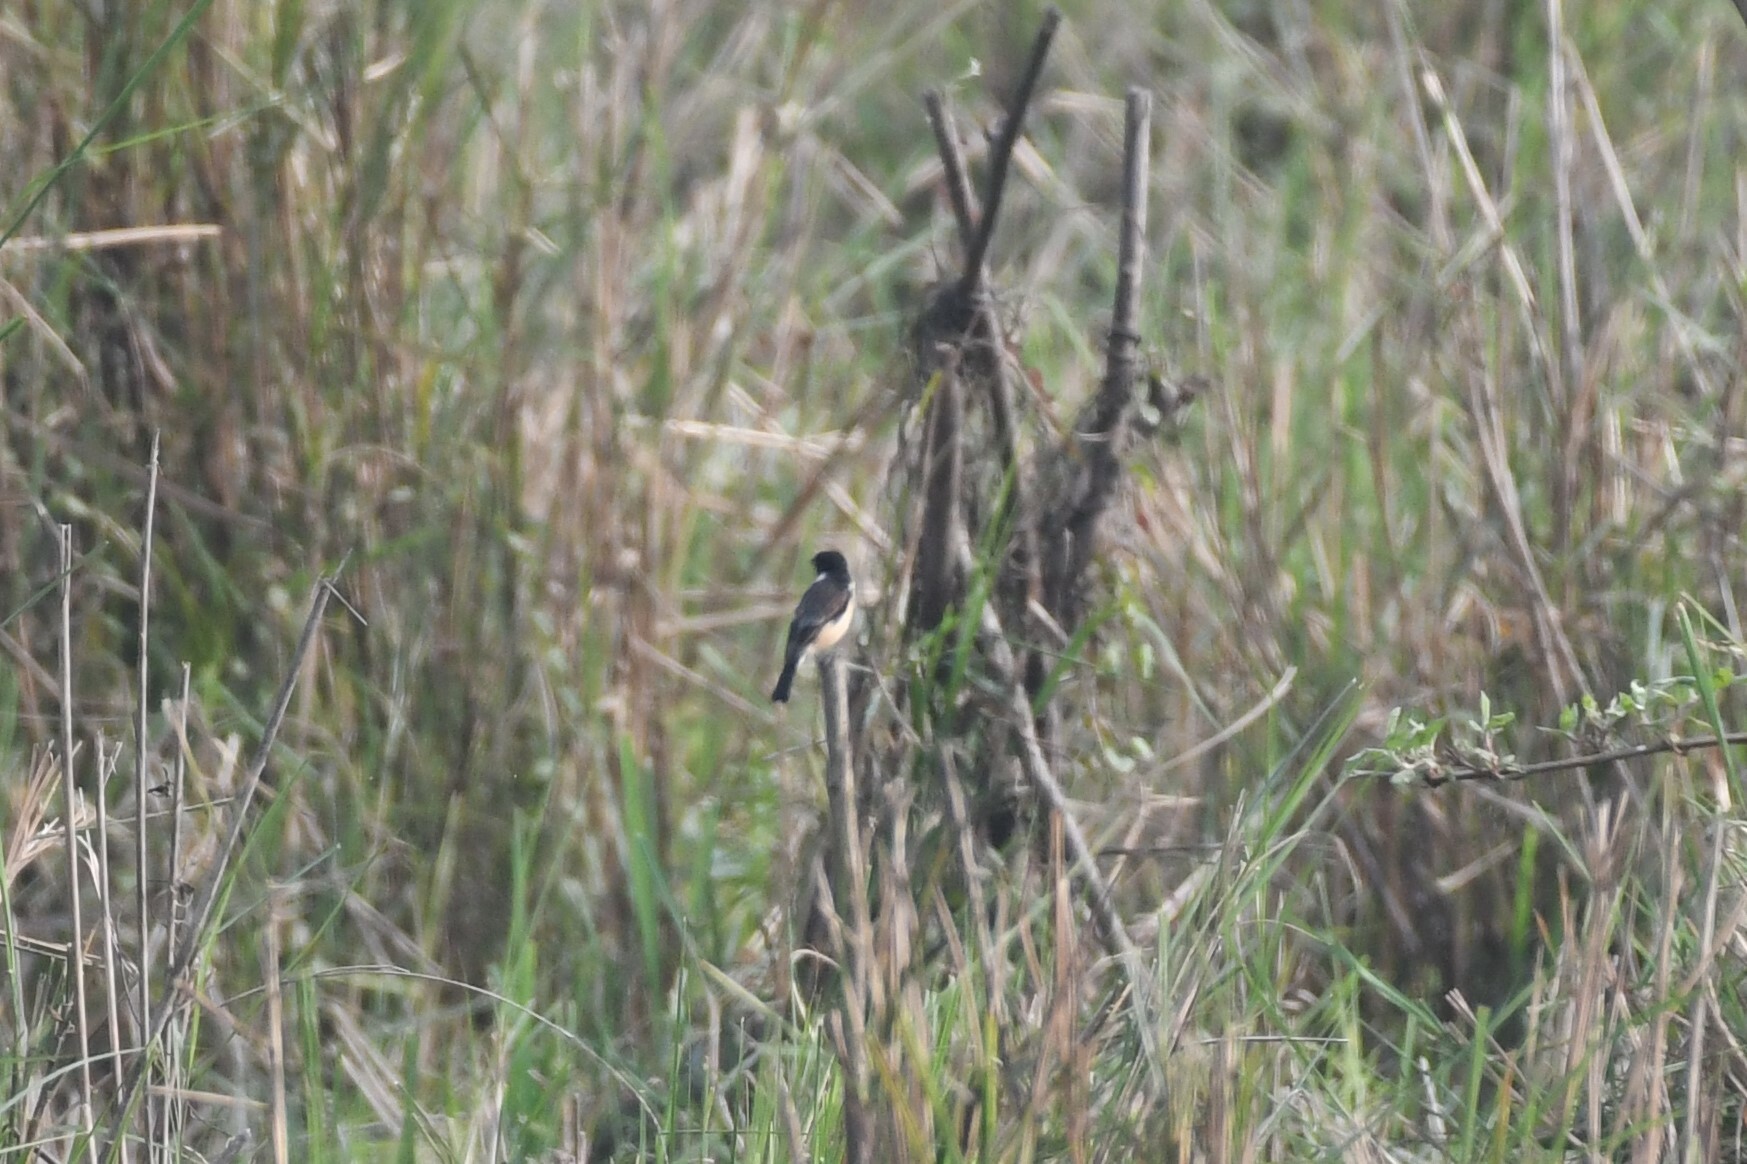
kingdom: Animalia
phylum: Chordata
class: Aves
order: Passeriformes
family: Muscicapidae
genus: Saxicola
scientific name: Saxicola maurus
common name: Siberian stonechat
